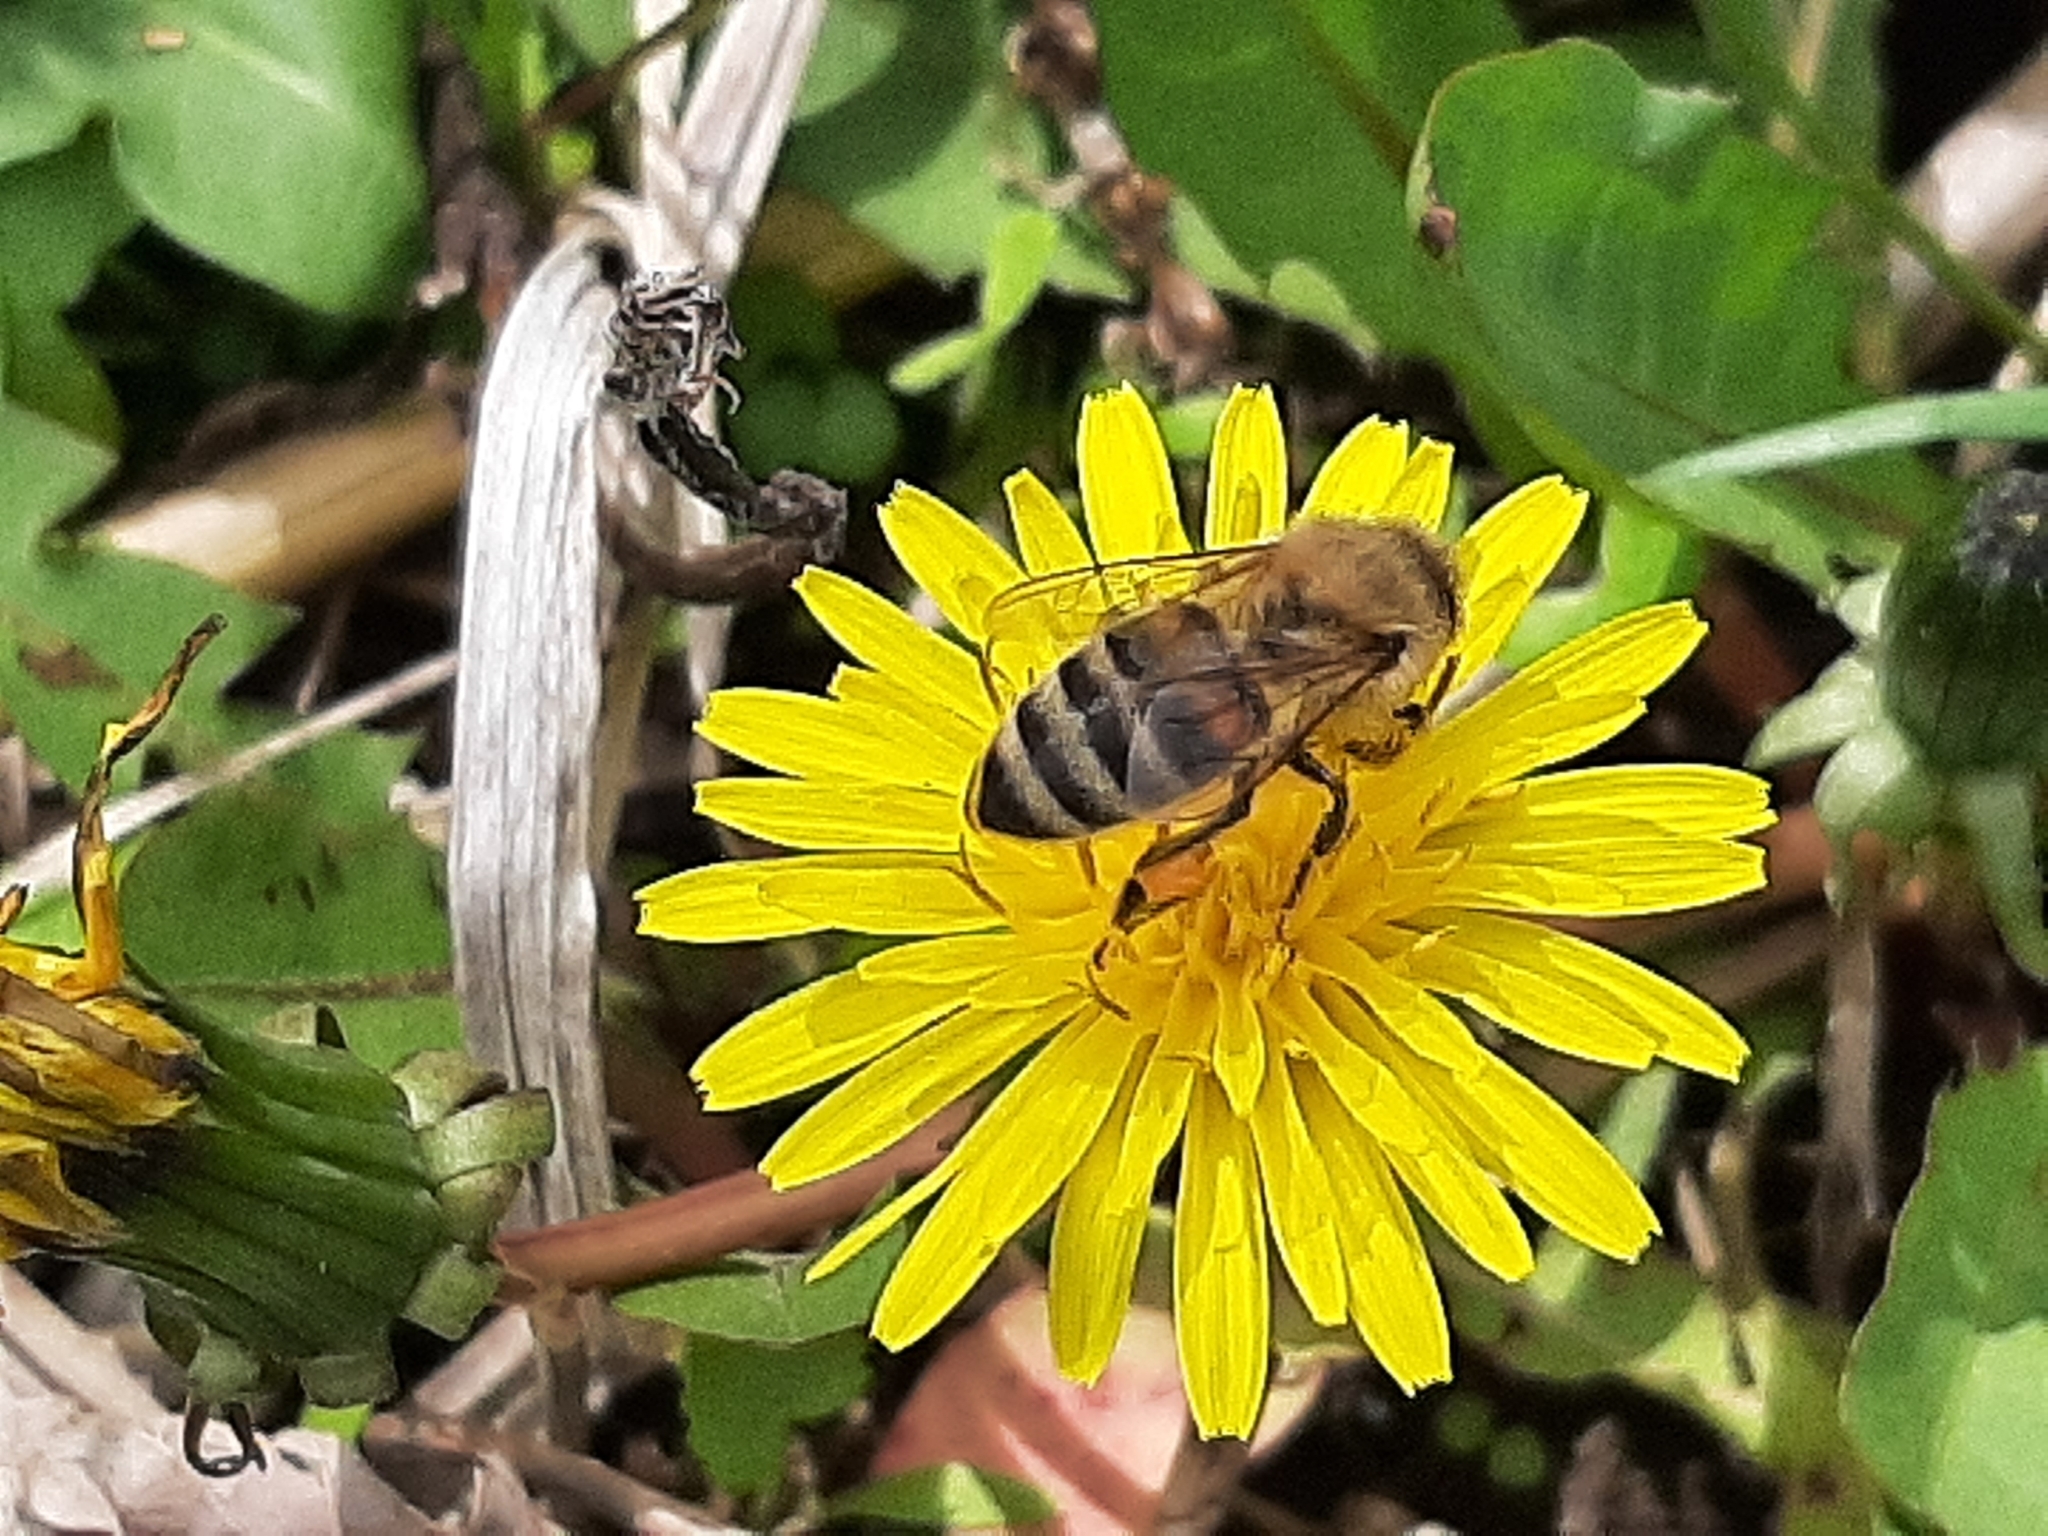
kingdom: Animalia
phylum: Arthropoda
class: Insecta
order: Hymenoptera
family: Apidae
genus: Apis
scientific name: Apis mellifera
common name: Honey bee
